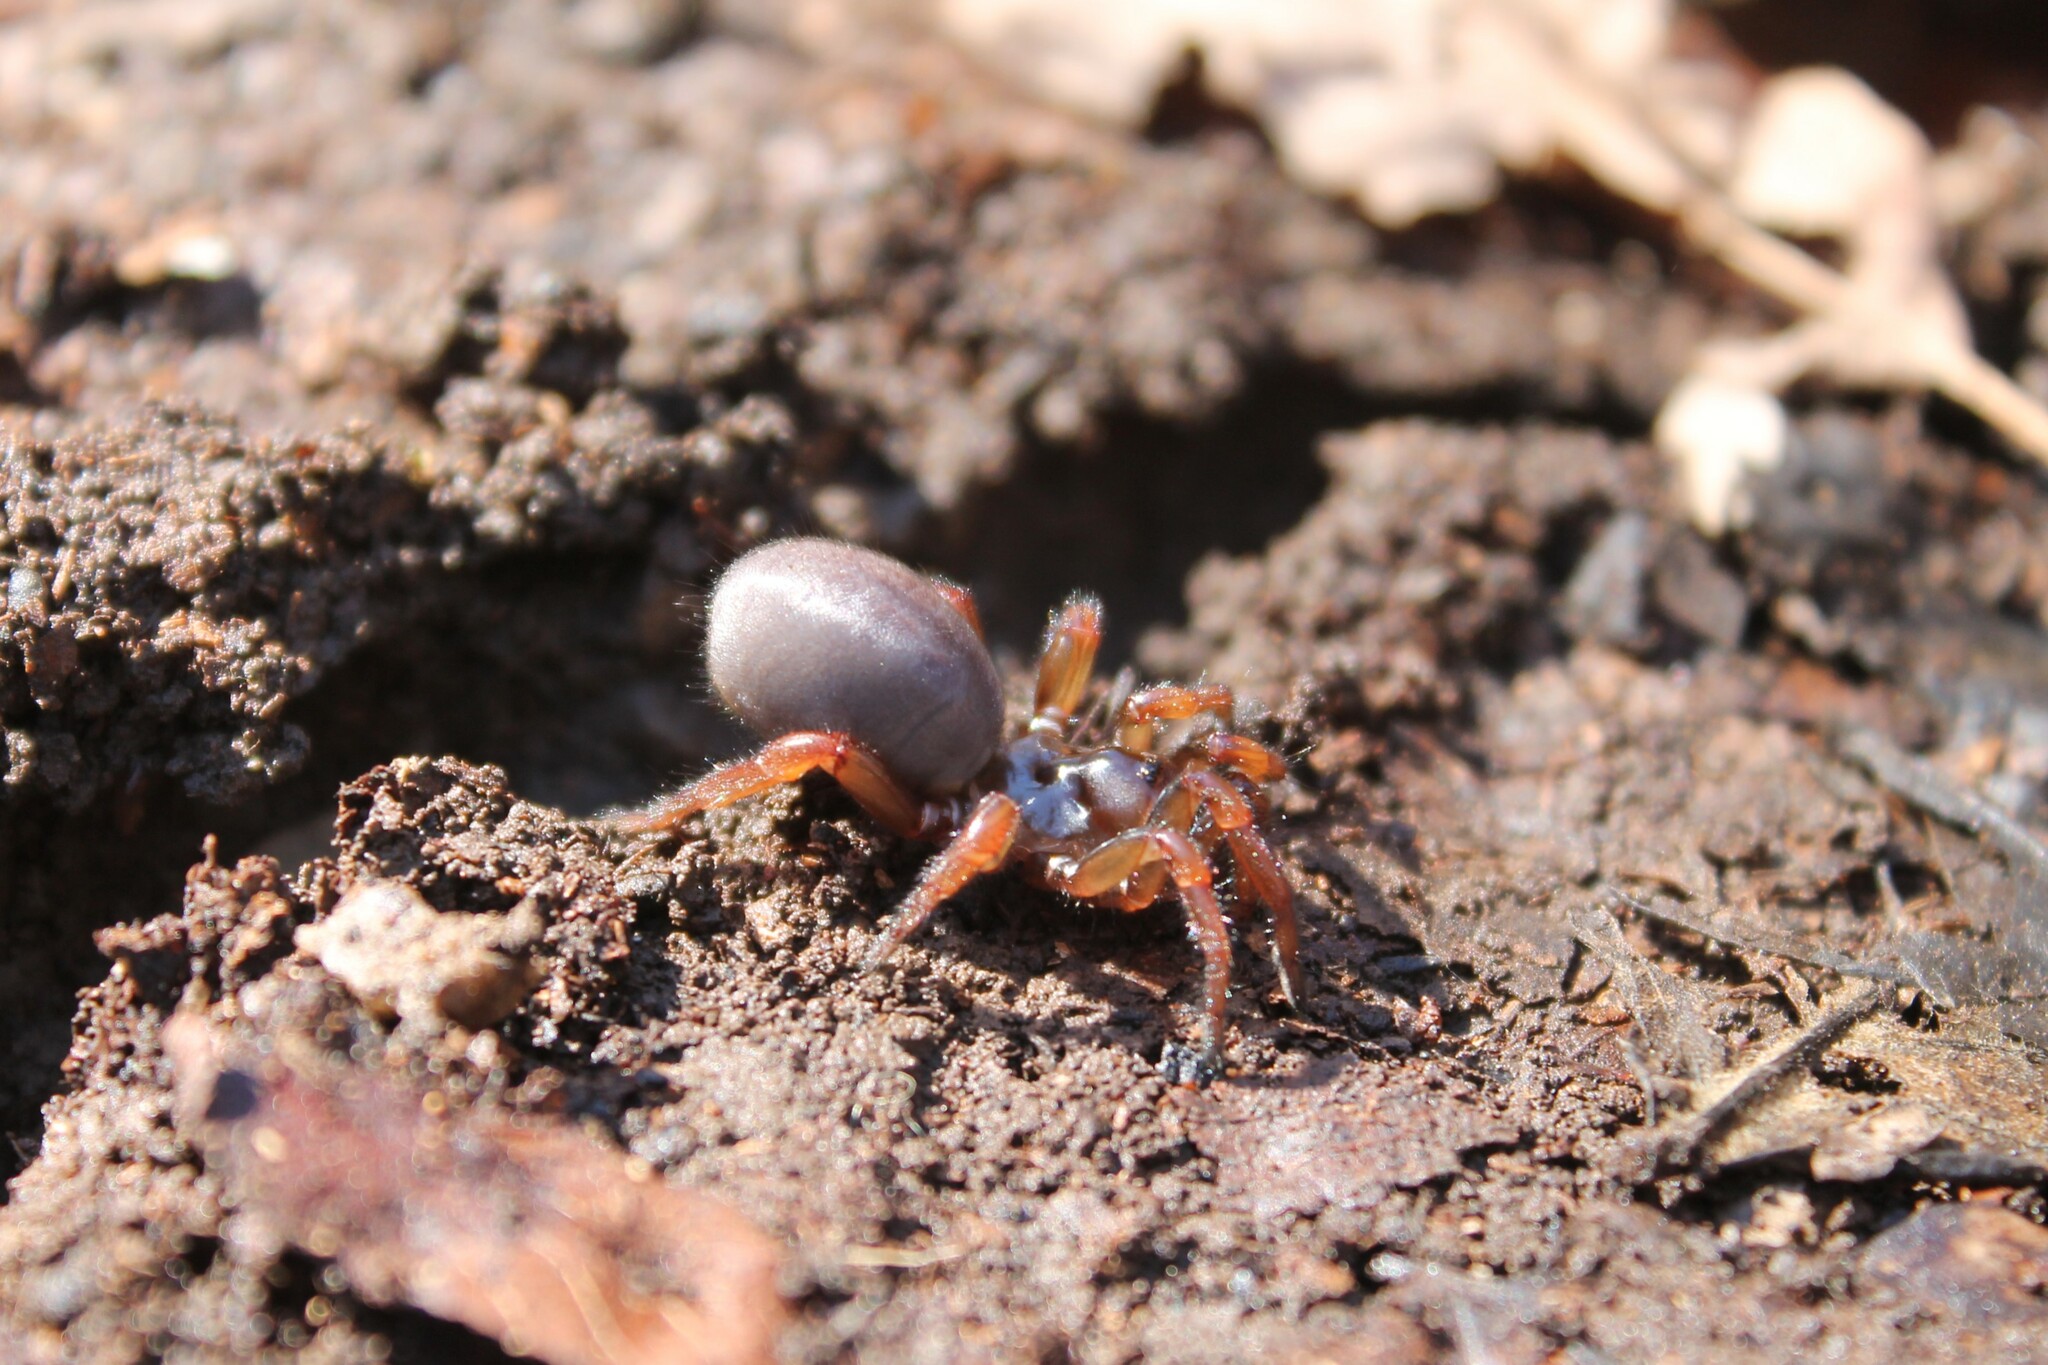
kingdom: Animalia
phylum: Arthropoda
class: Arachnida
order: Araneae
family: Euctenizidae
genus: Myrmekiaphila
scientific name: Myrmekiaphila jenkinsi
